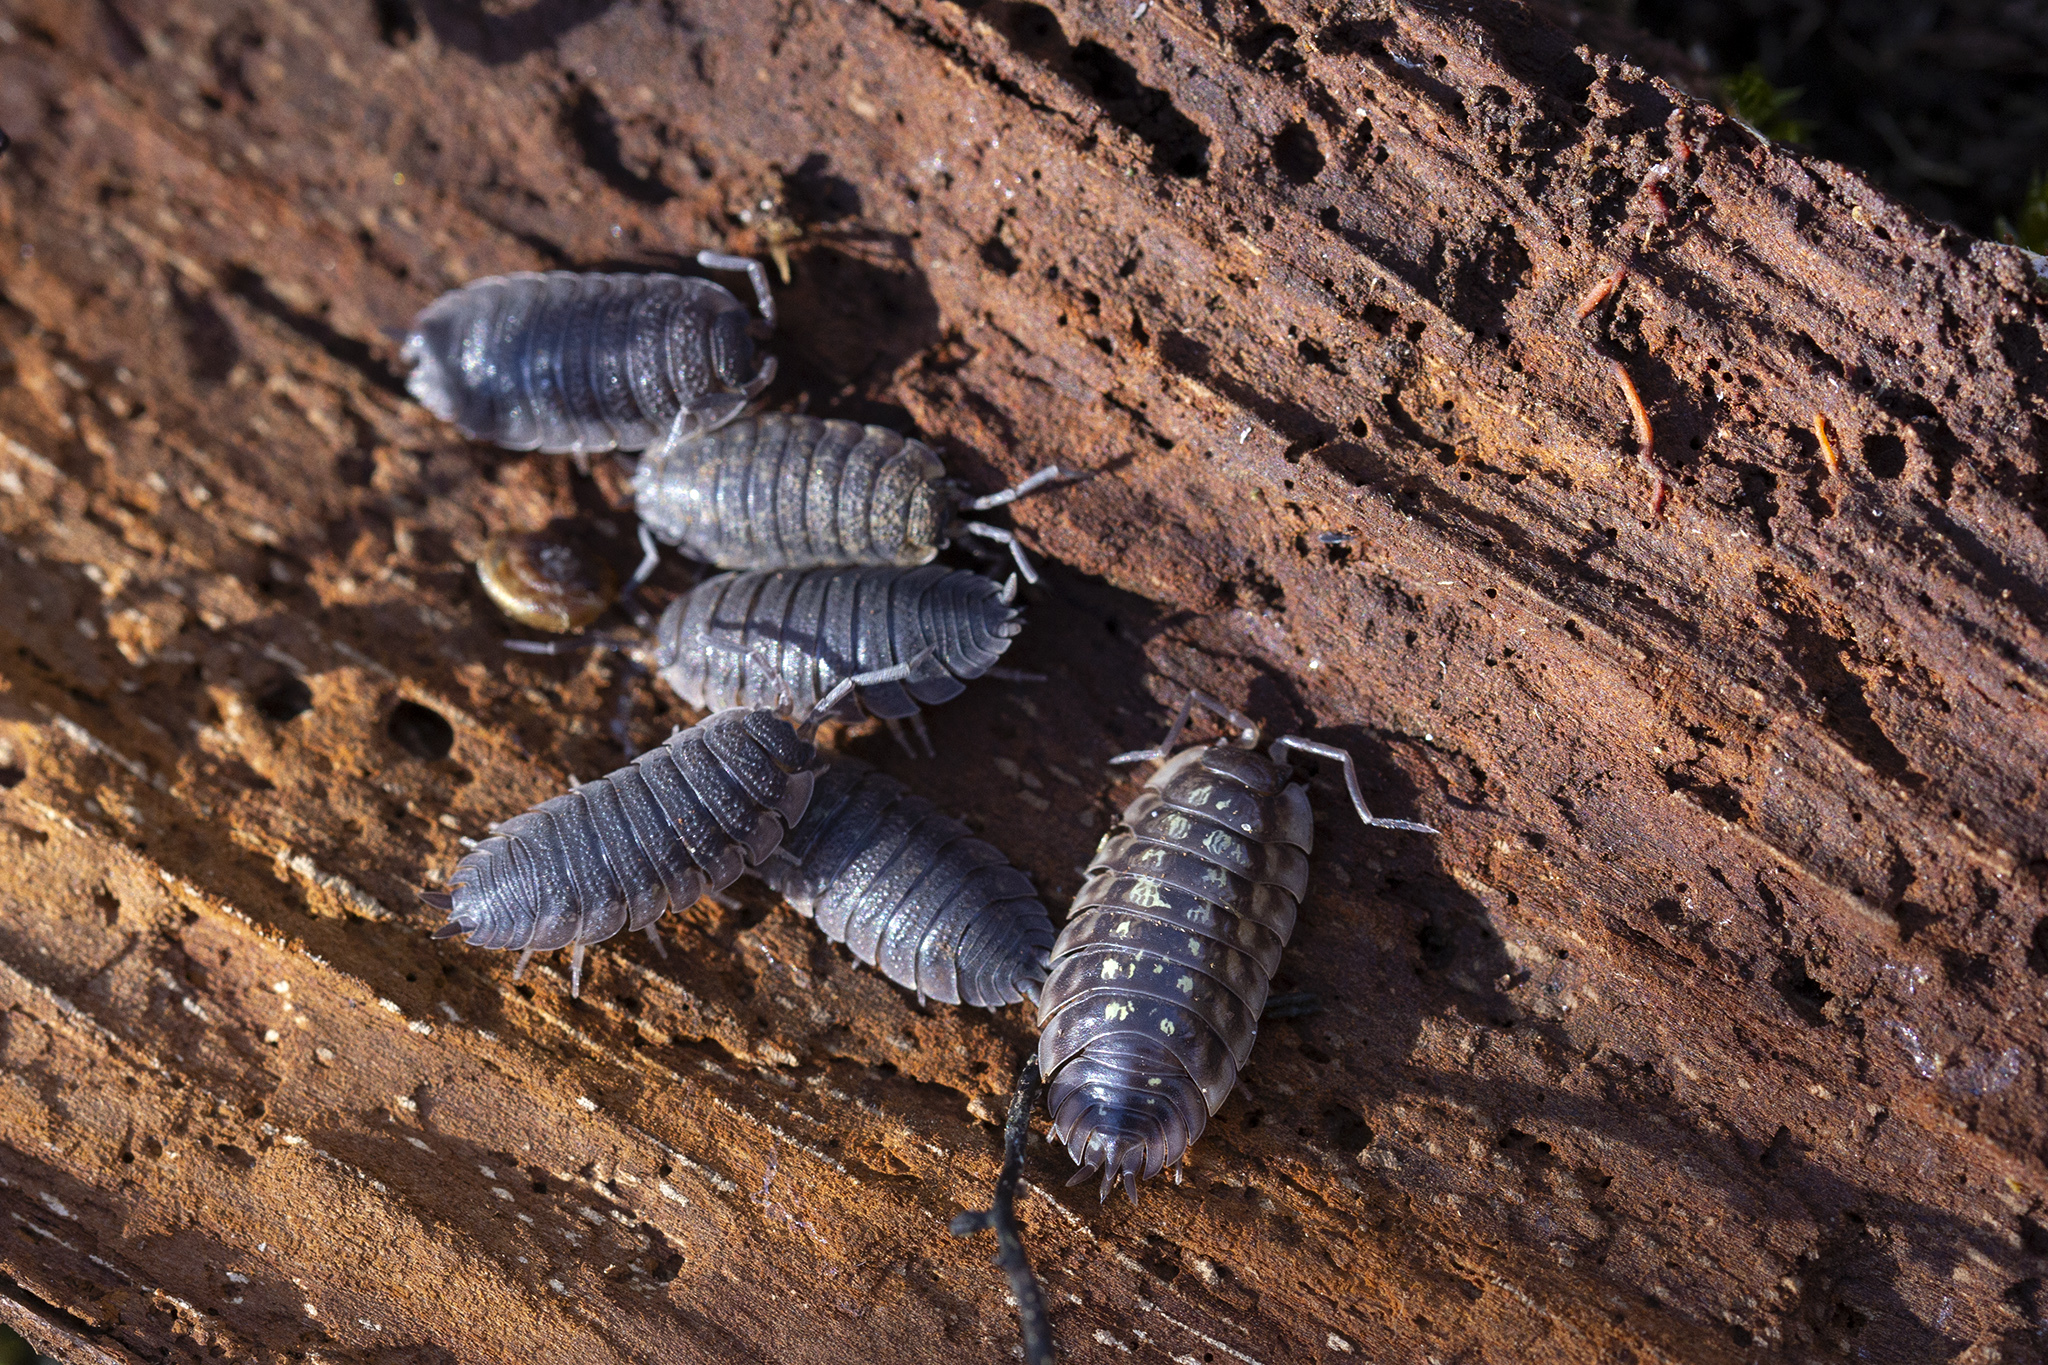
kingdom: Animalia
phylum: Arthropoda
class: Malacostraca
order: Isopoda
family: Porcellionidae
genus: Porcellio
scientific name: Porcellio scaber
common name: Common rough woodlouse
